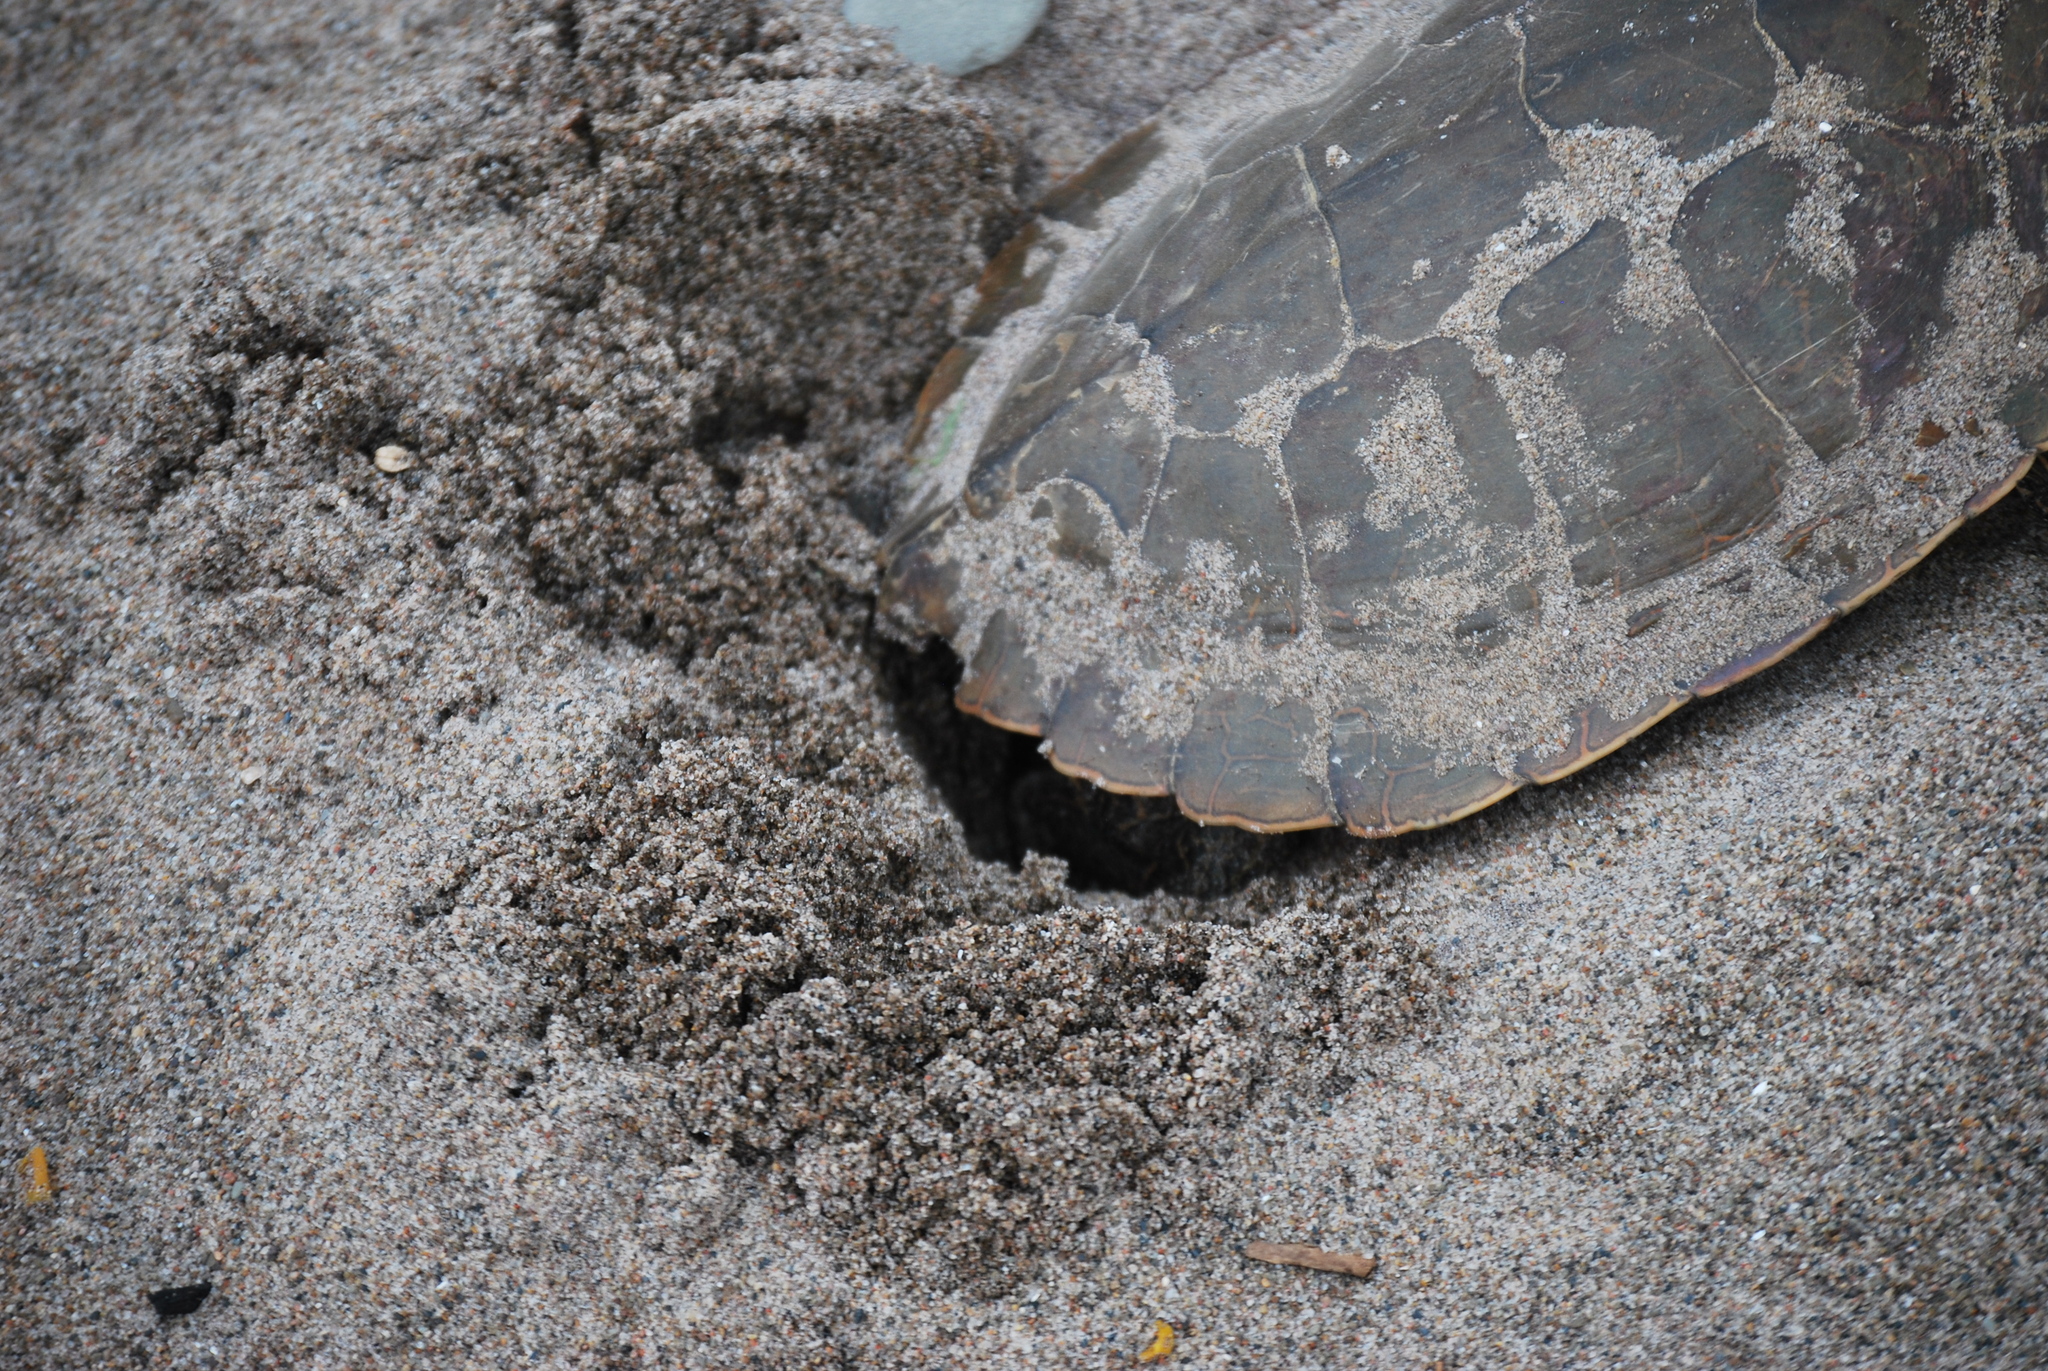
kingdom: Animalia
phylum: Chordata
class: Testudines
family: Emydidae
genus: Graptemys
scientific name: Graptemys geographica
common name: Common map turtle
